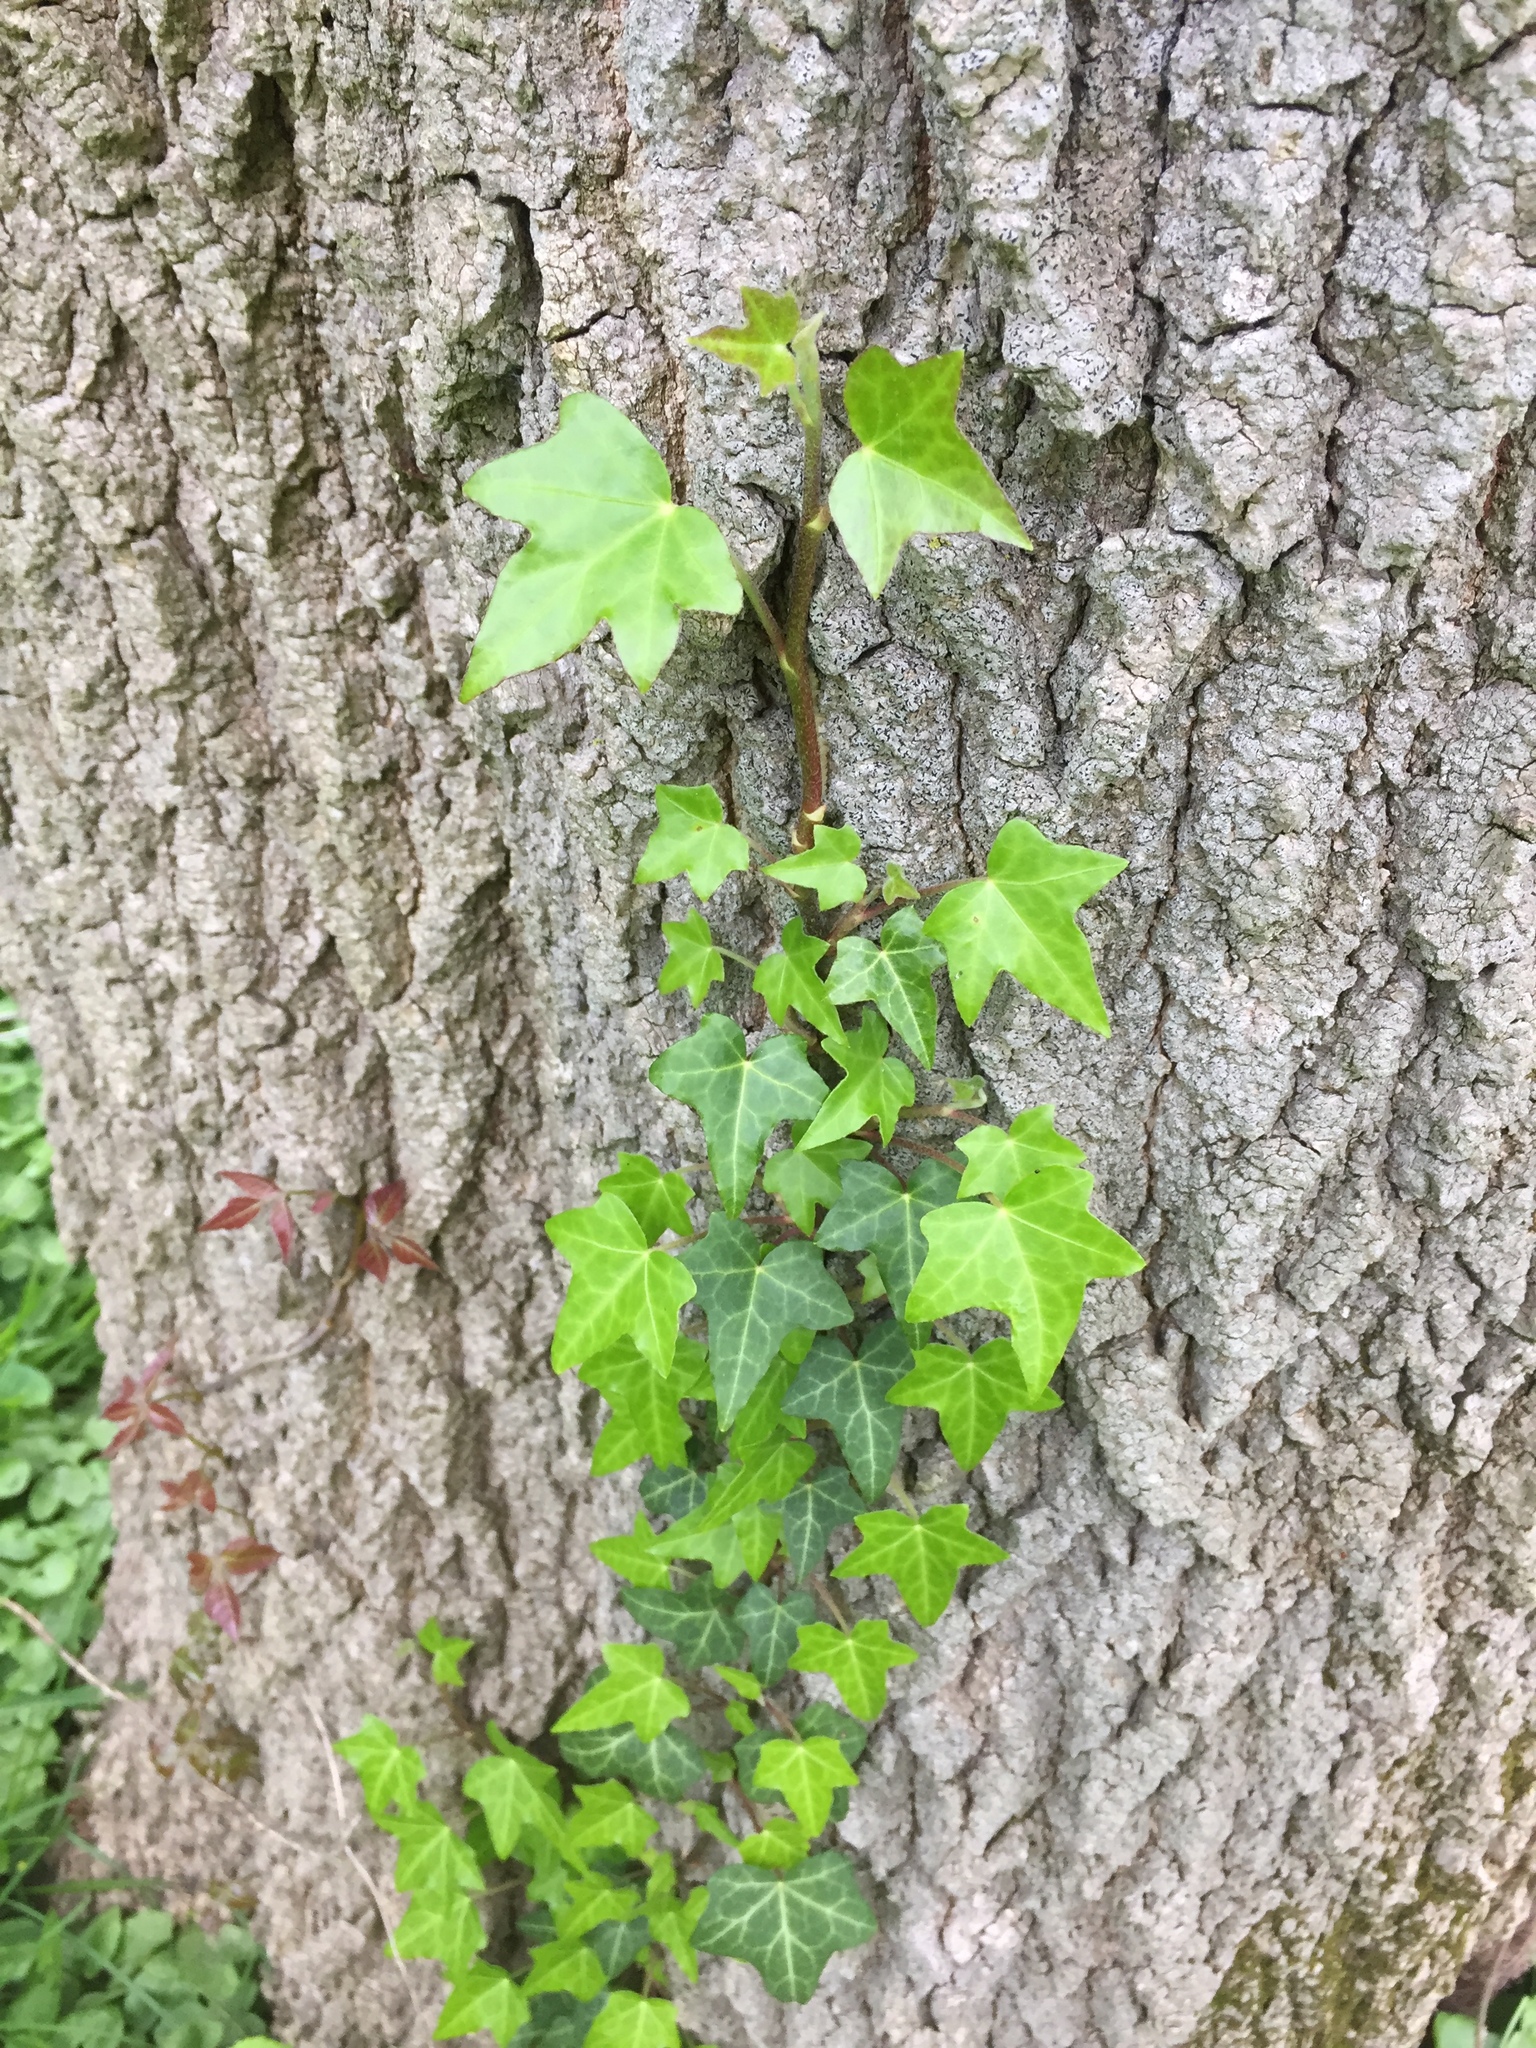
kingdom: Plantae
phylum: Tracheophyta
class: Magnoliopsida
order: Apiales
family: Araliaceae
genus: Hedera
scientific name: Hedera helix
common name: Ivy
